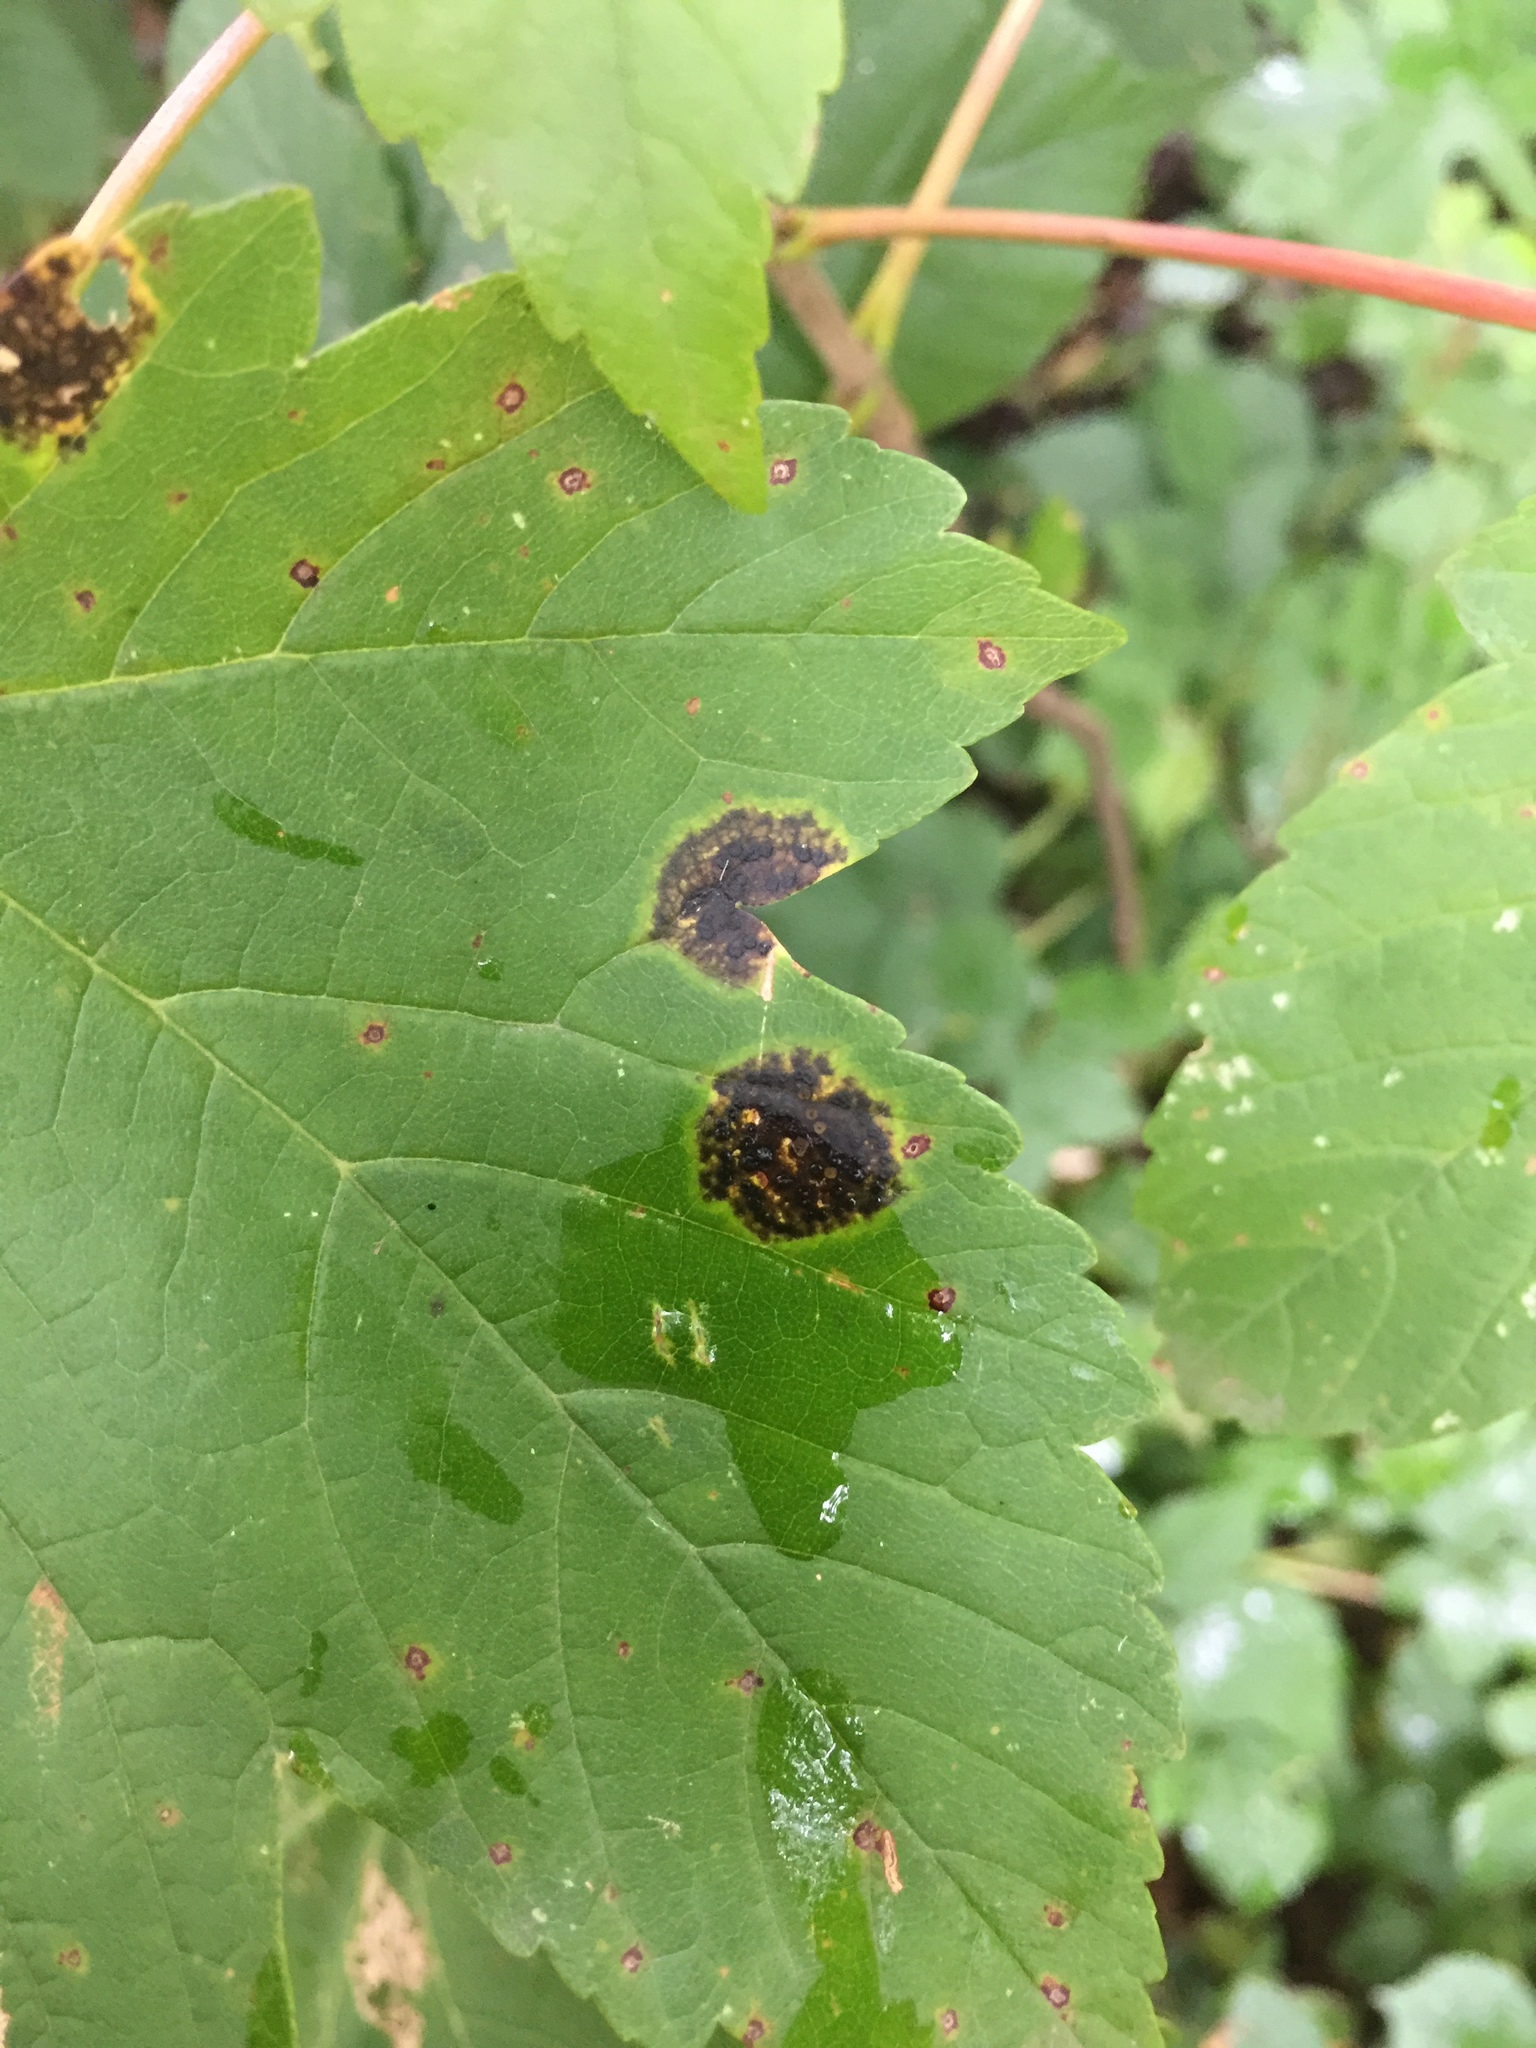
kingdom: Fungi
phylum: Ascomycota
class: Leotiomycetes
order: Rhytismatales
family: Rhytismataceae
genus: Rhytisma
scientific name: Rhytisma acerinum
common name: European tar spot
